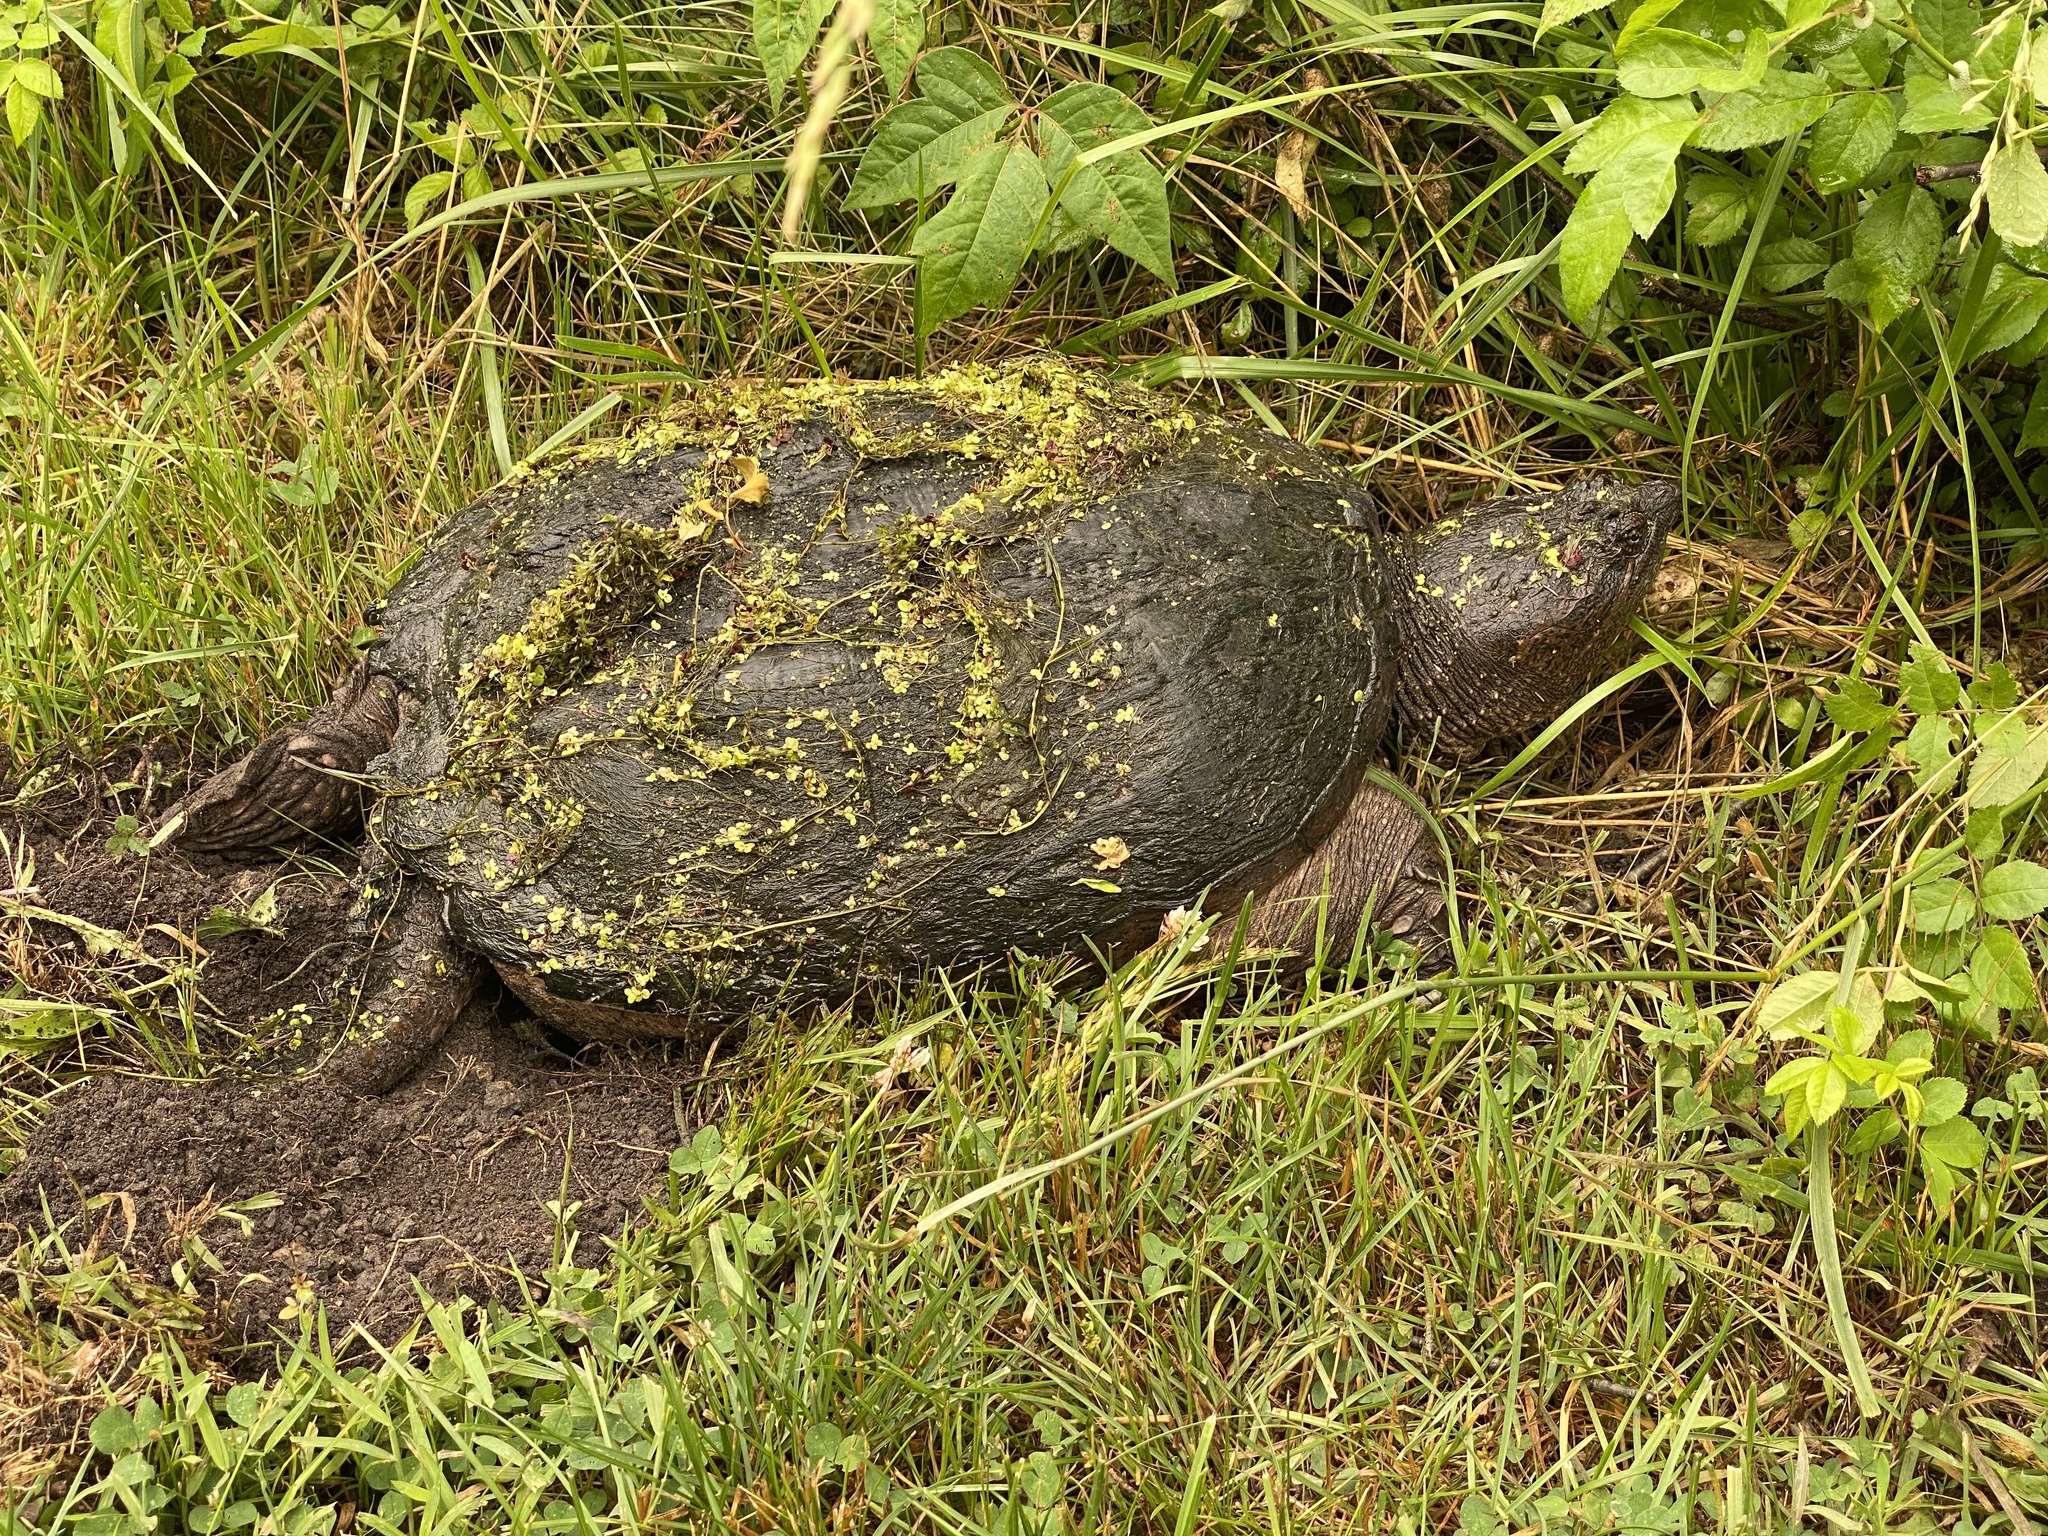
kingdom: Animalia
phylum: Chordata
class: Testudines
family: Chelydridae
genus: Chelydra
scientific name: Chelydra serpentina
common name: Common snapping turtle
